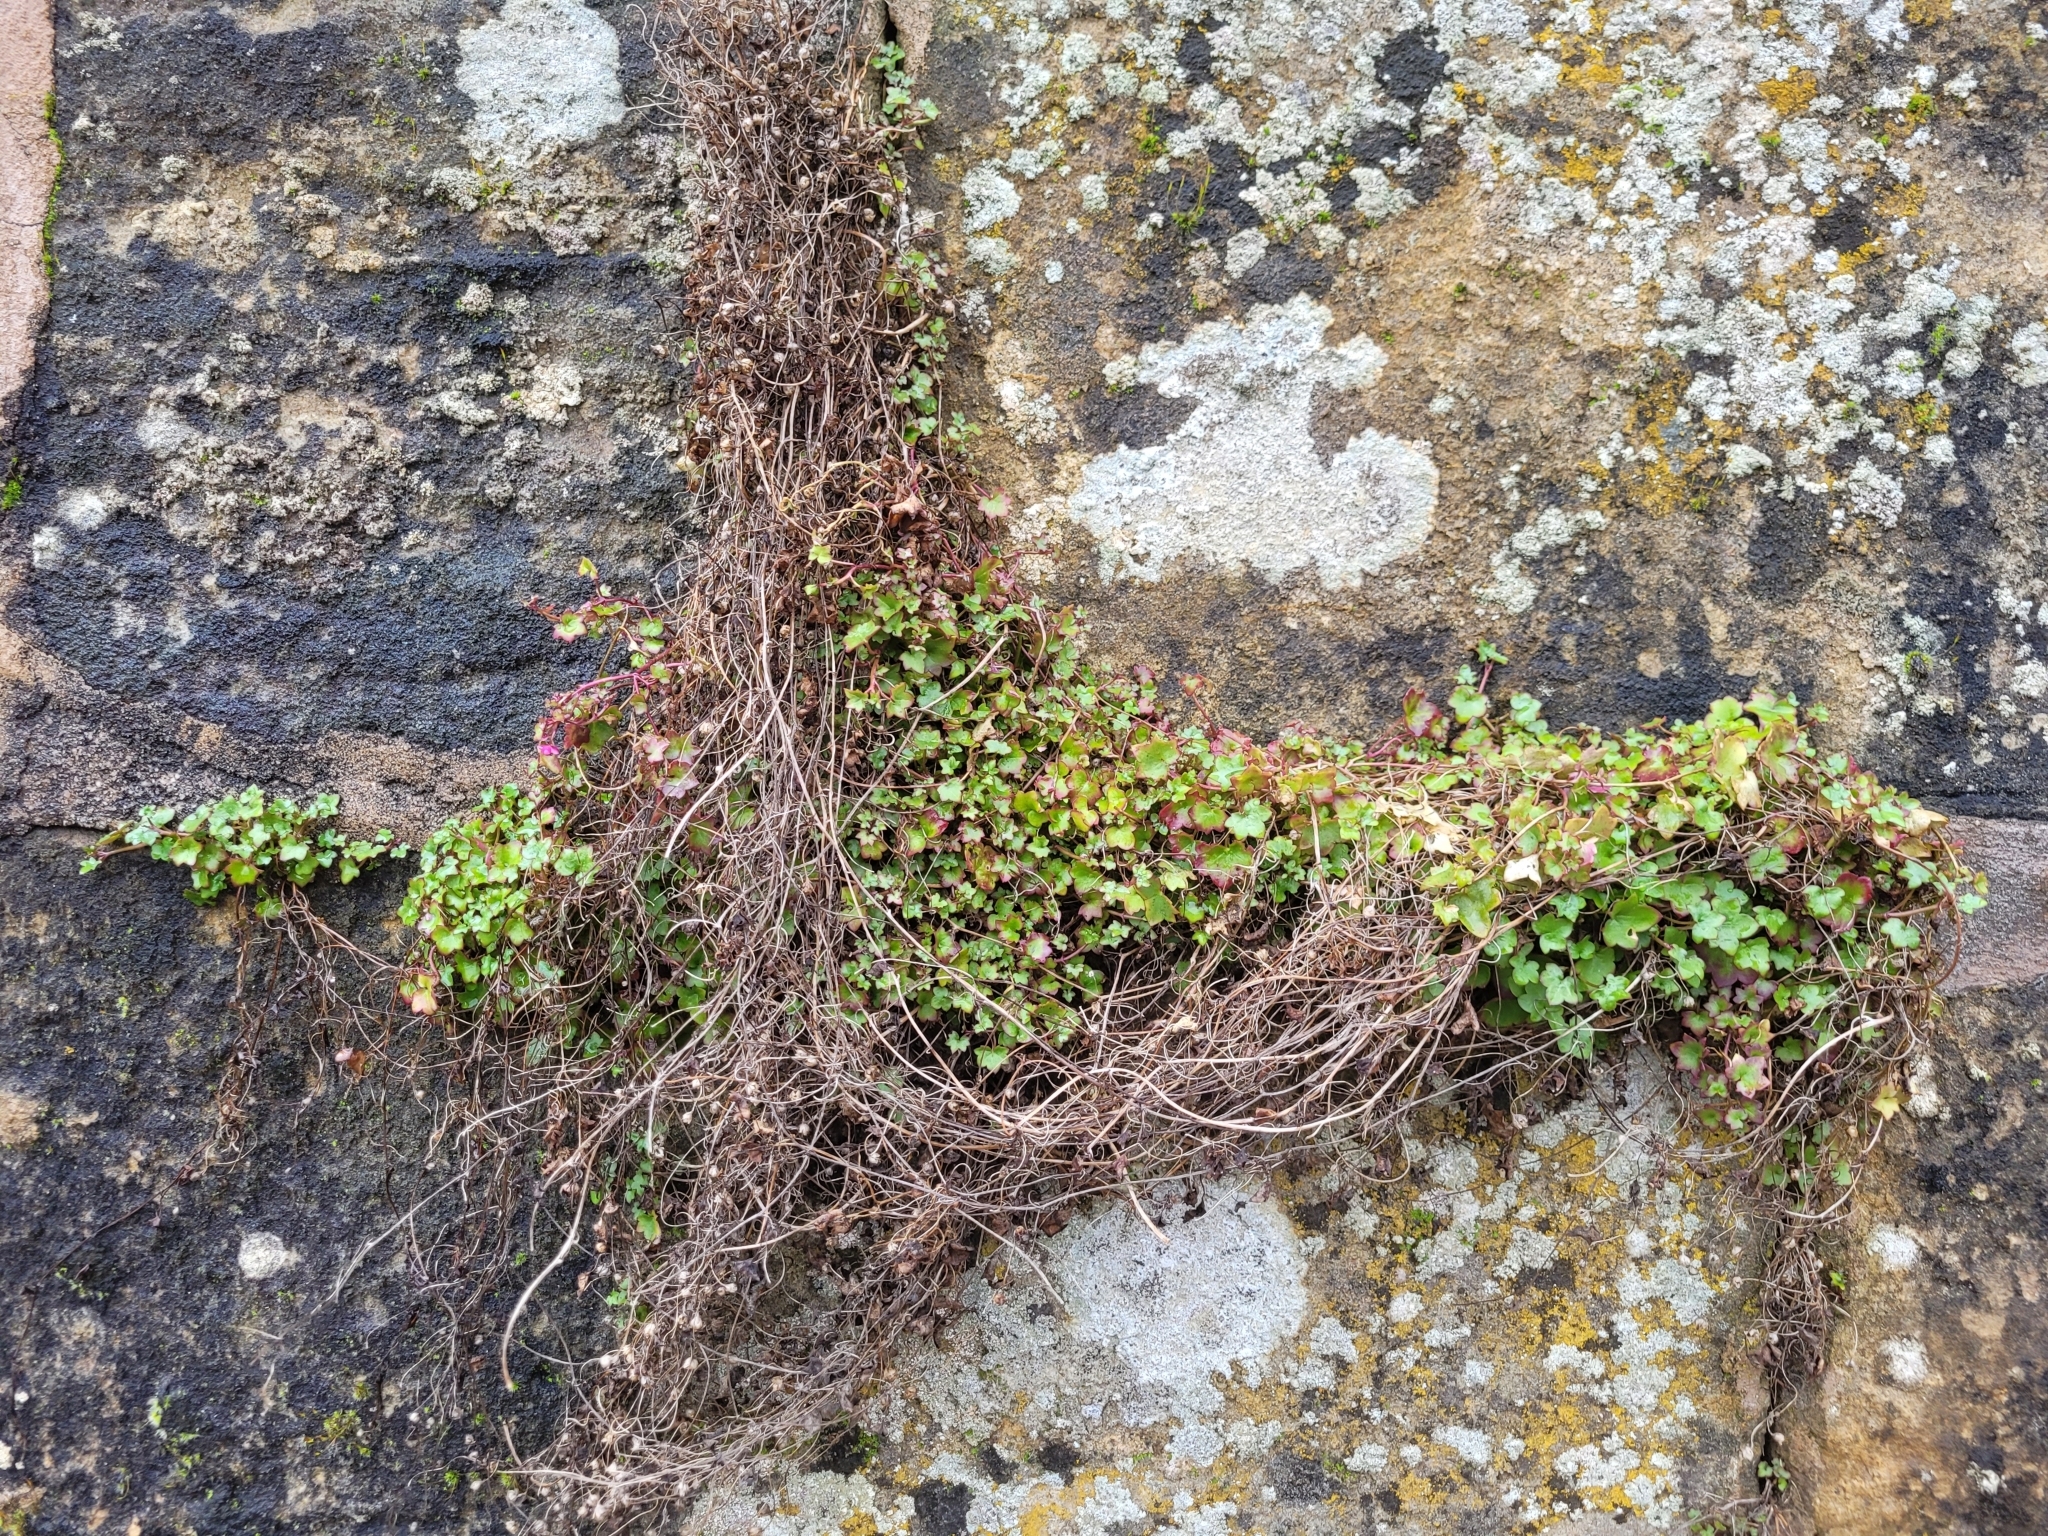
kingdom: Plantae
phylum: Tracheophyta
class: Magnoliopsida
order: Lamiales
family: Plantaginaceae
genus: Cymbalaria
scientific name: Cymbalaria muralis
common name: Ivy-leaved toadflax
